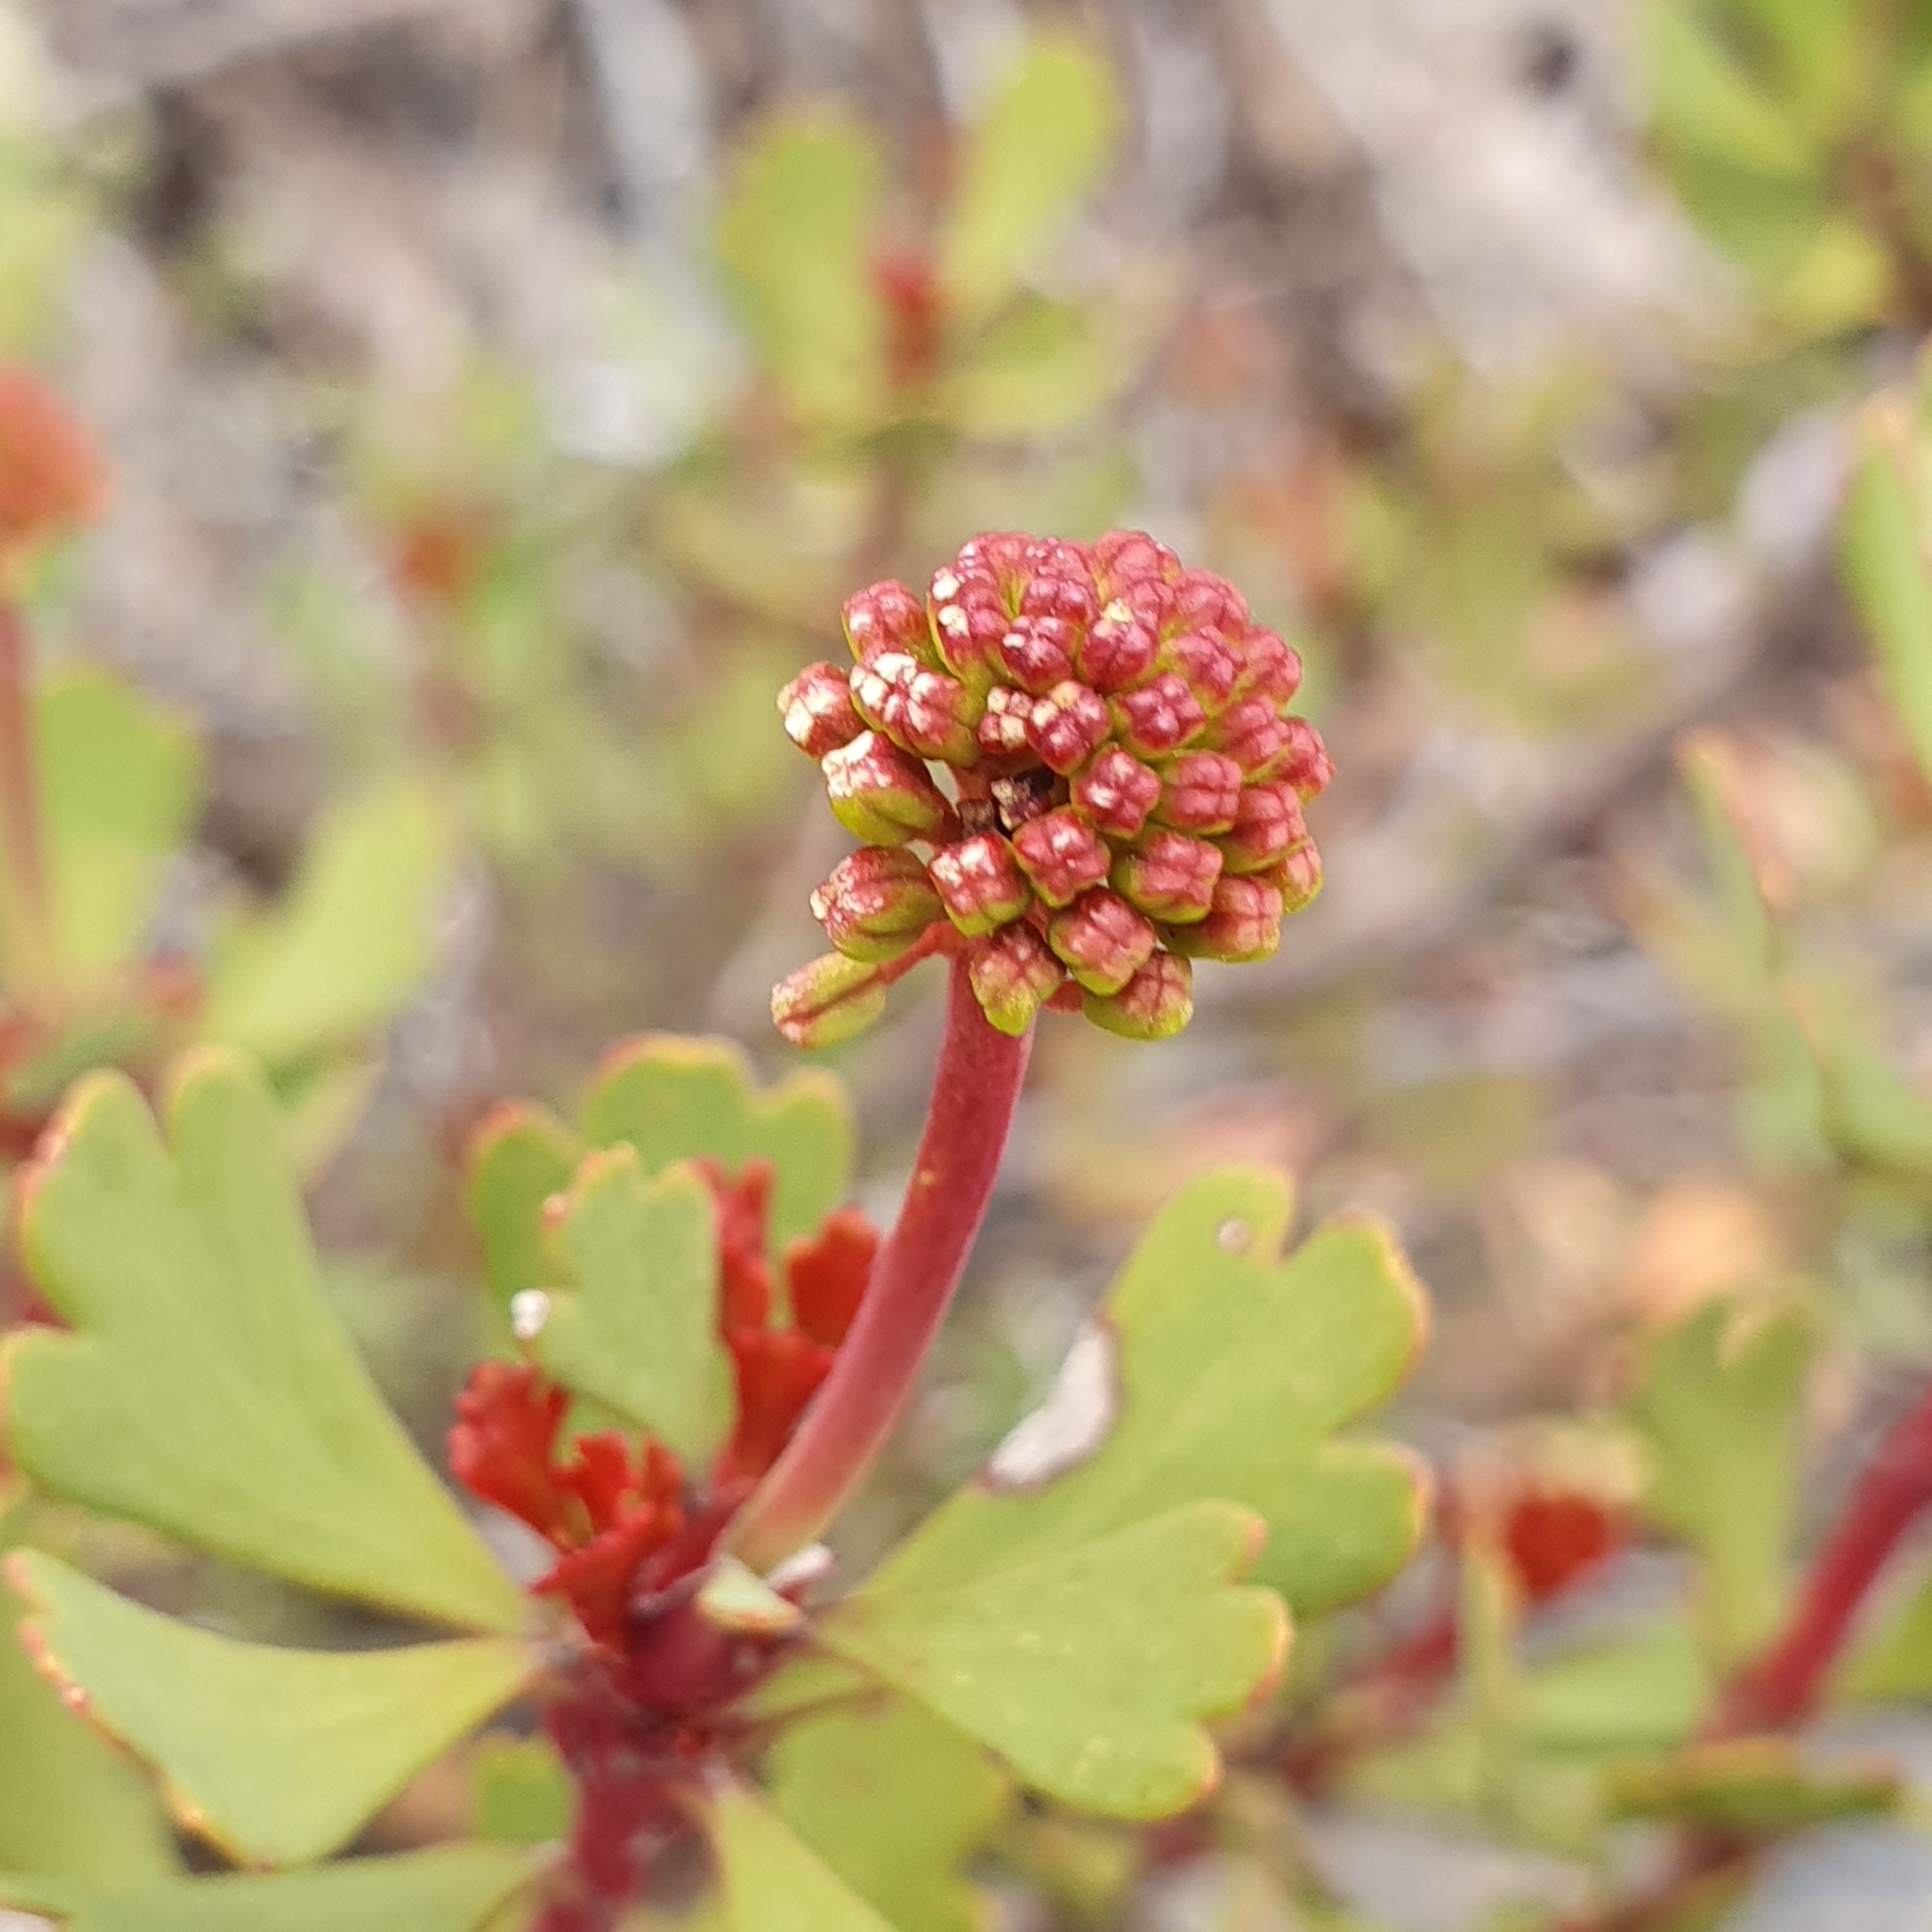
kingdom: Plantae
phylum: Tracheophyta
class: Magnoliopsida
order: Proteales
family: Proteaceae
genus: Bellendena
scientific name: Bellendena montana
